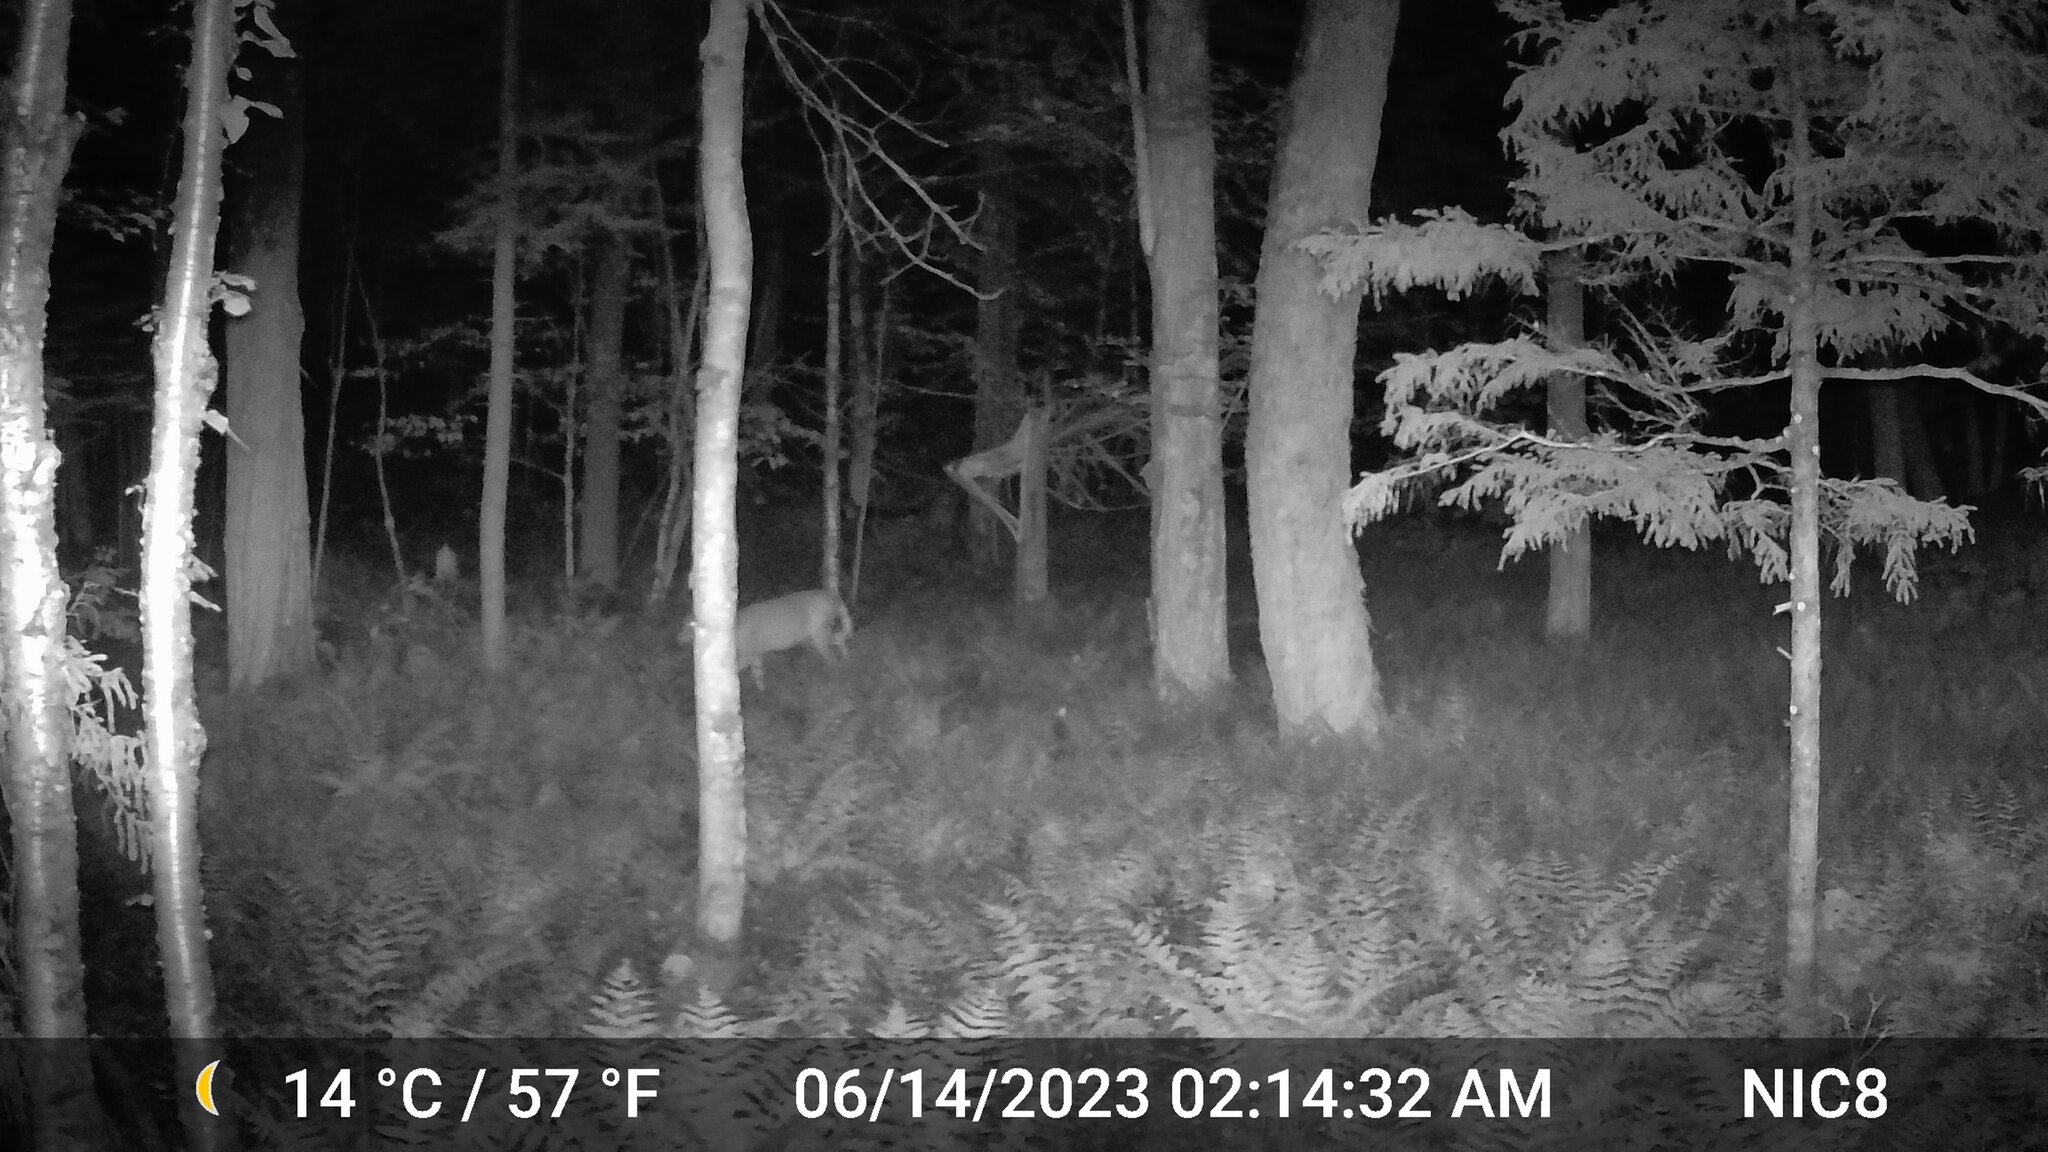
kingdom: Animalia
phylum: Chordata
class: Mammalia
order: Artiodactyla
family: Cervidae
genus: Odocoileus
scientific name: Odocoileus virginianus
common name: White-tailed deer
